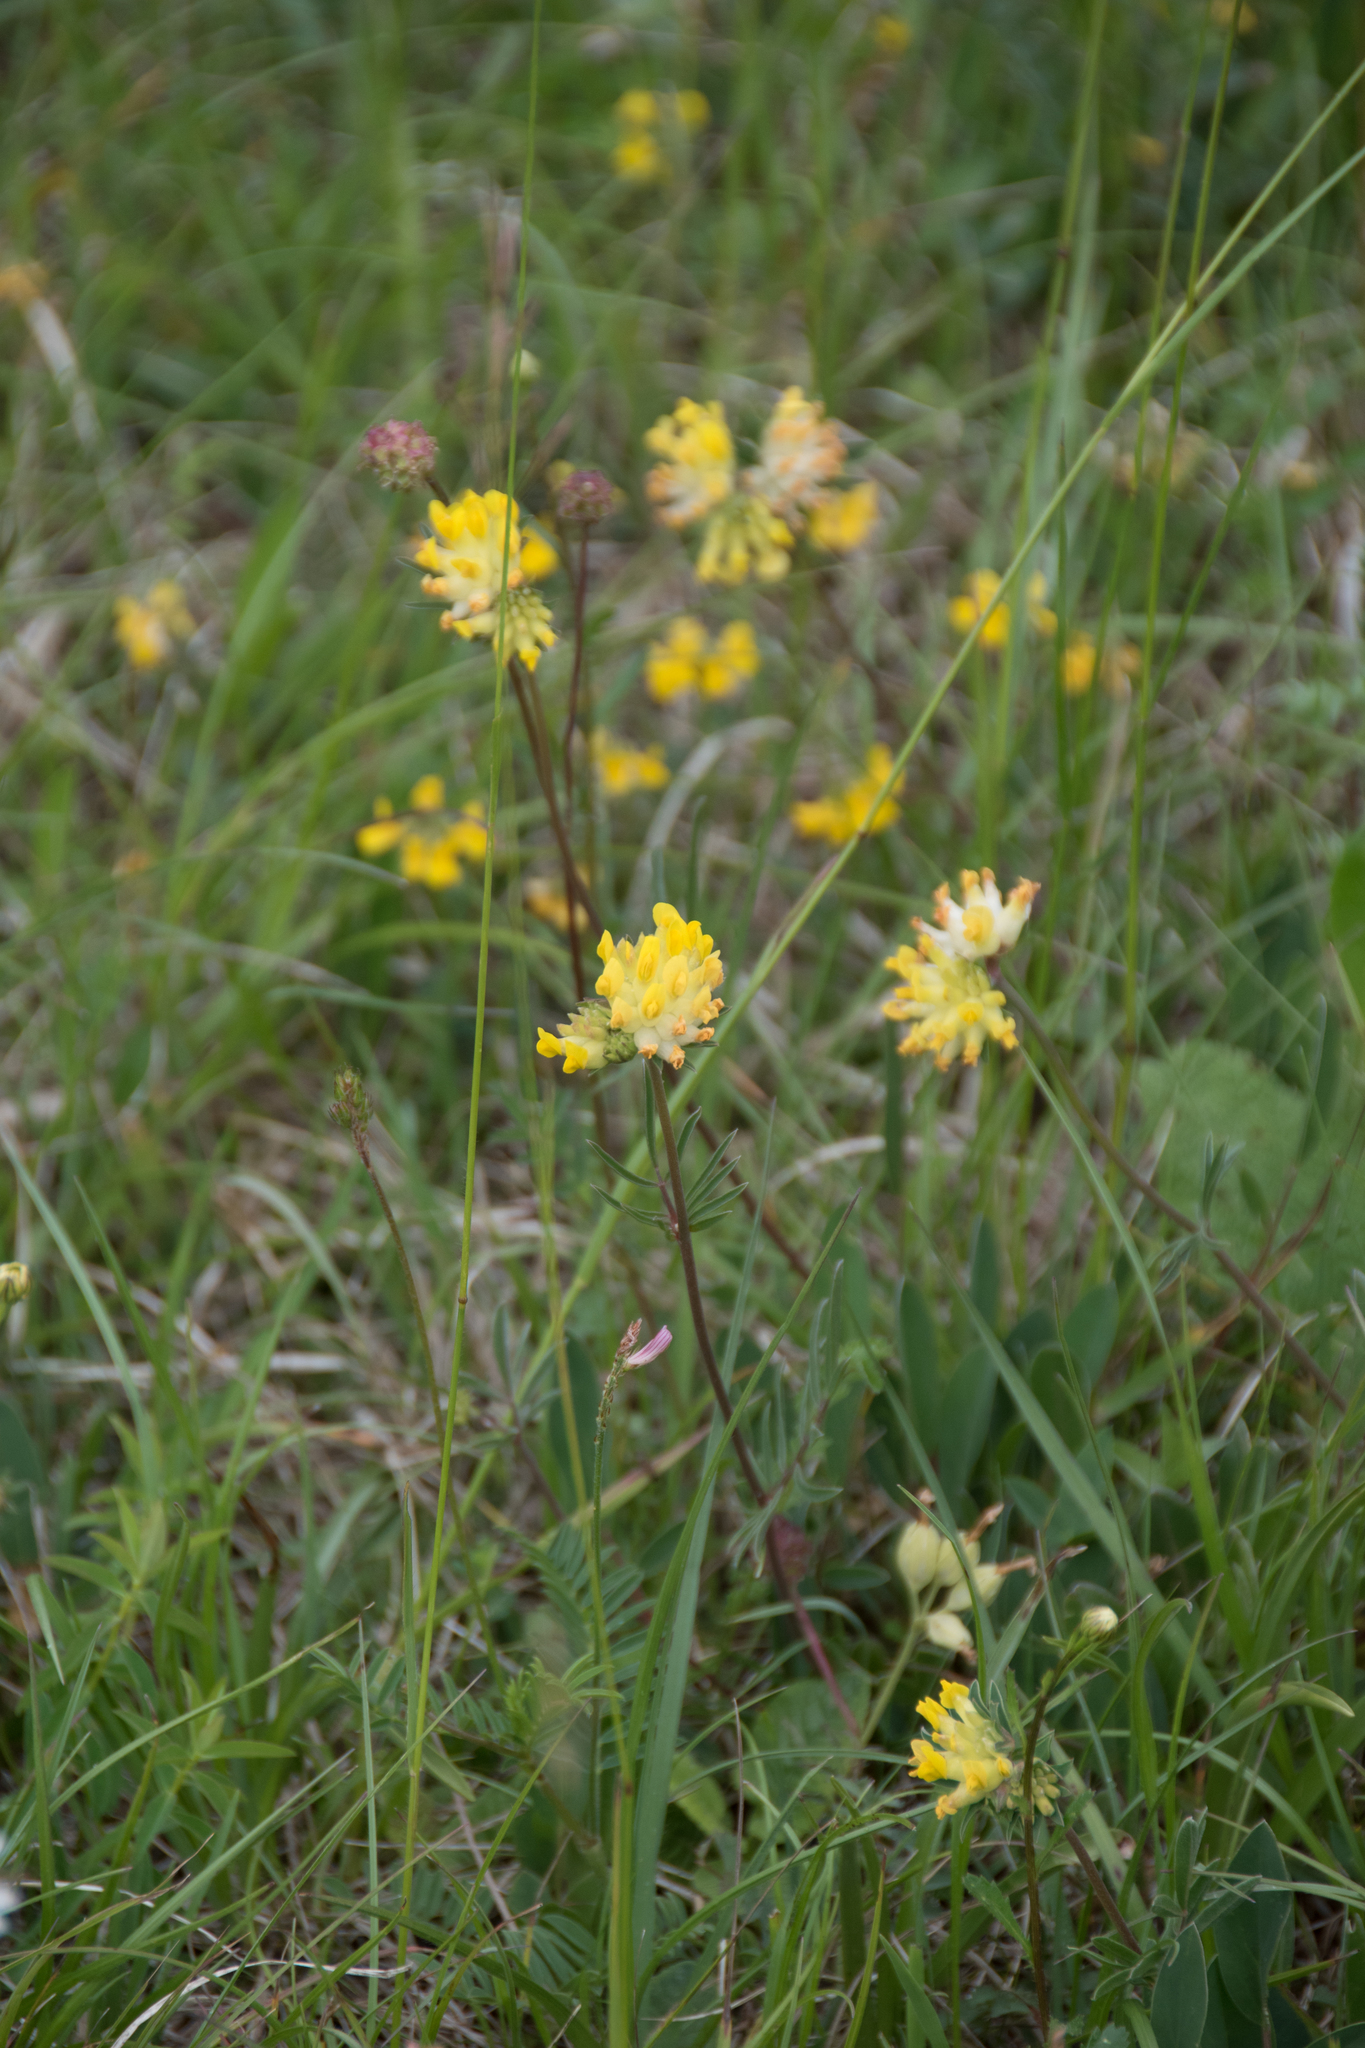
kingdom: Plantae
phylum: Tracheophyta
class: Magnoliopsida
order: Fabales
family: Fabaceae
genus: Anthyllis
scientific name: Anthyllis vulneraria
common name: Kidney vetch
